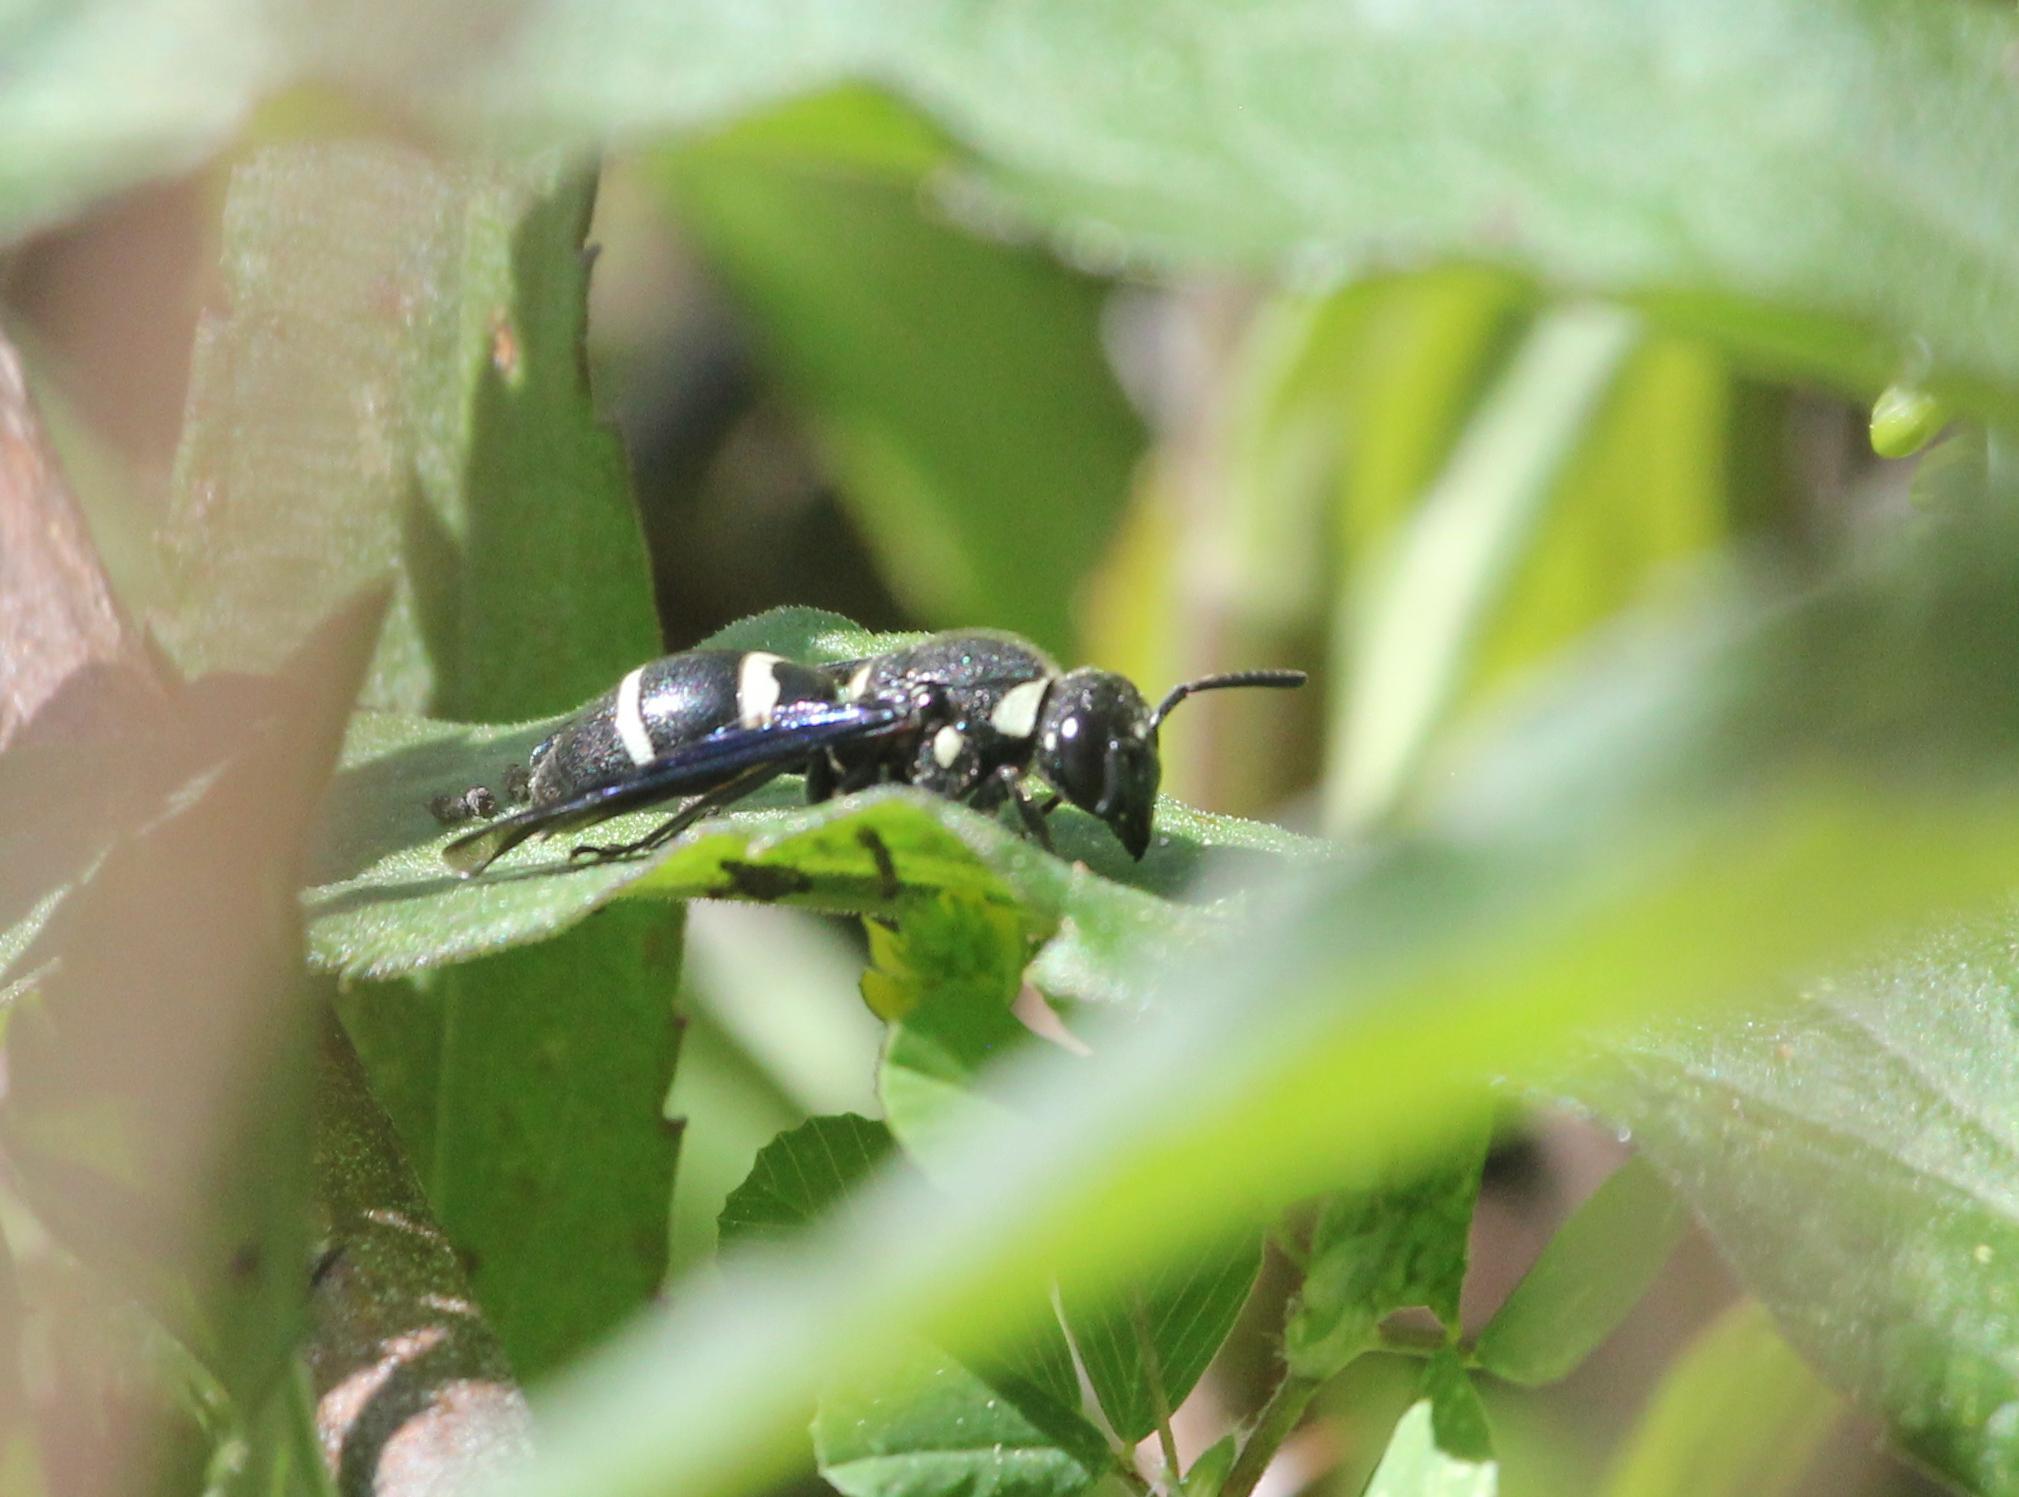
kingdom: Animalia
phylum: Arthropoda
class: Insecta
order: Hymenoptera
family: Eumenidae
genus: Euodynerus
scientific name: Euodynerus megaera
